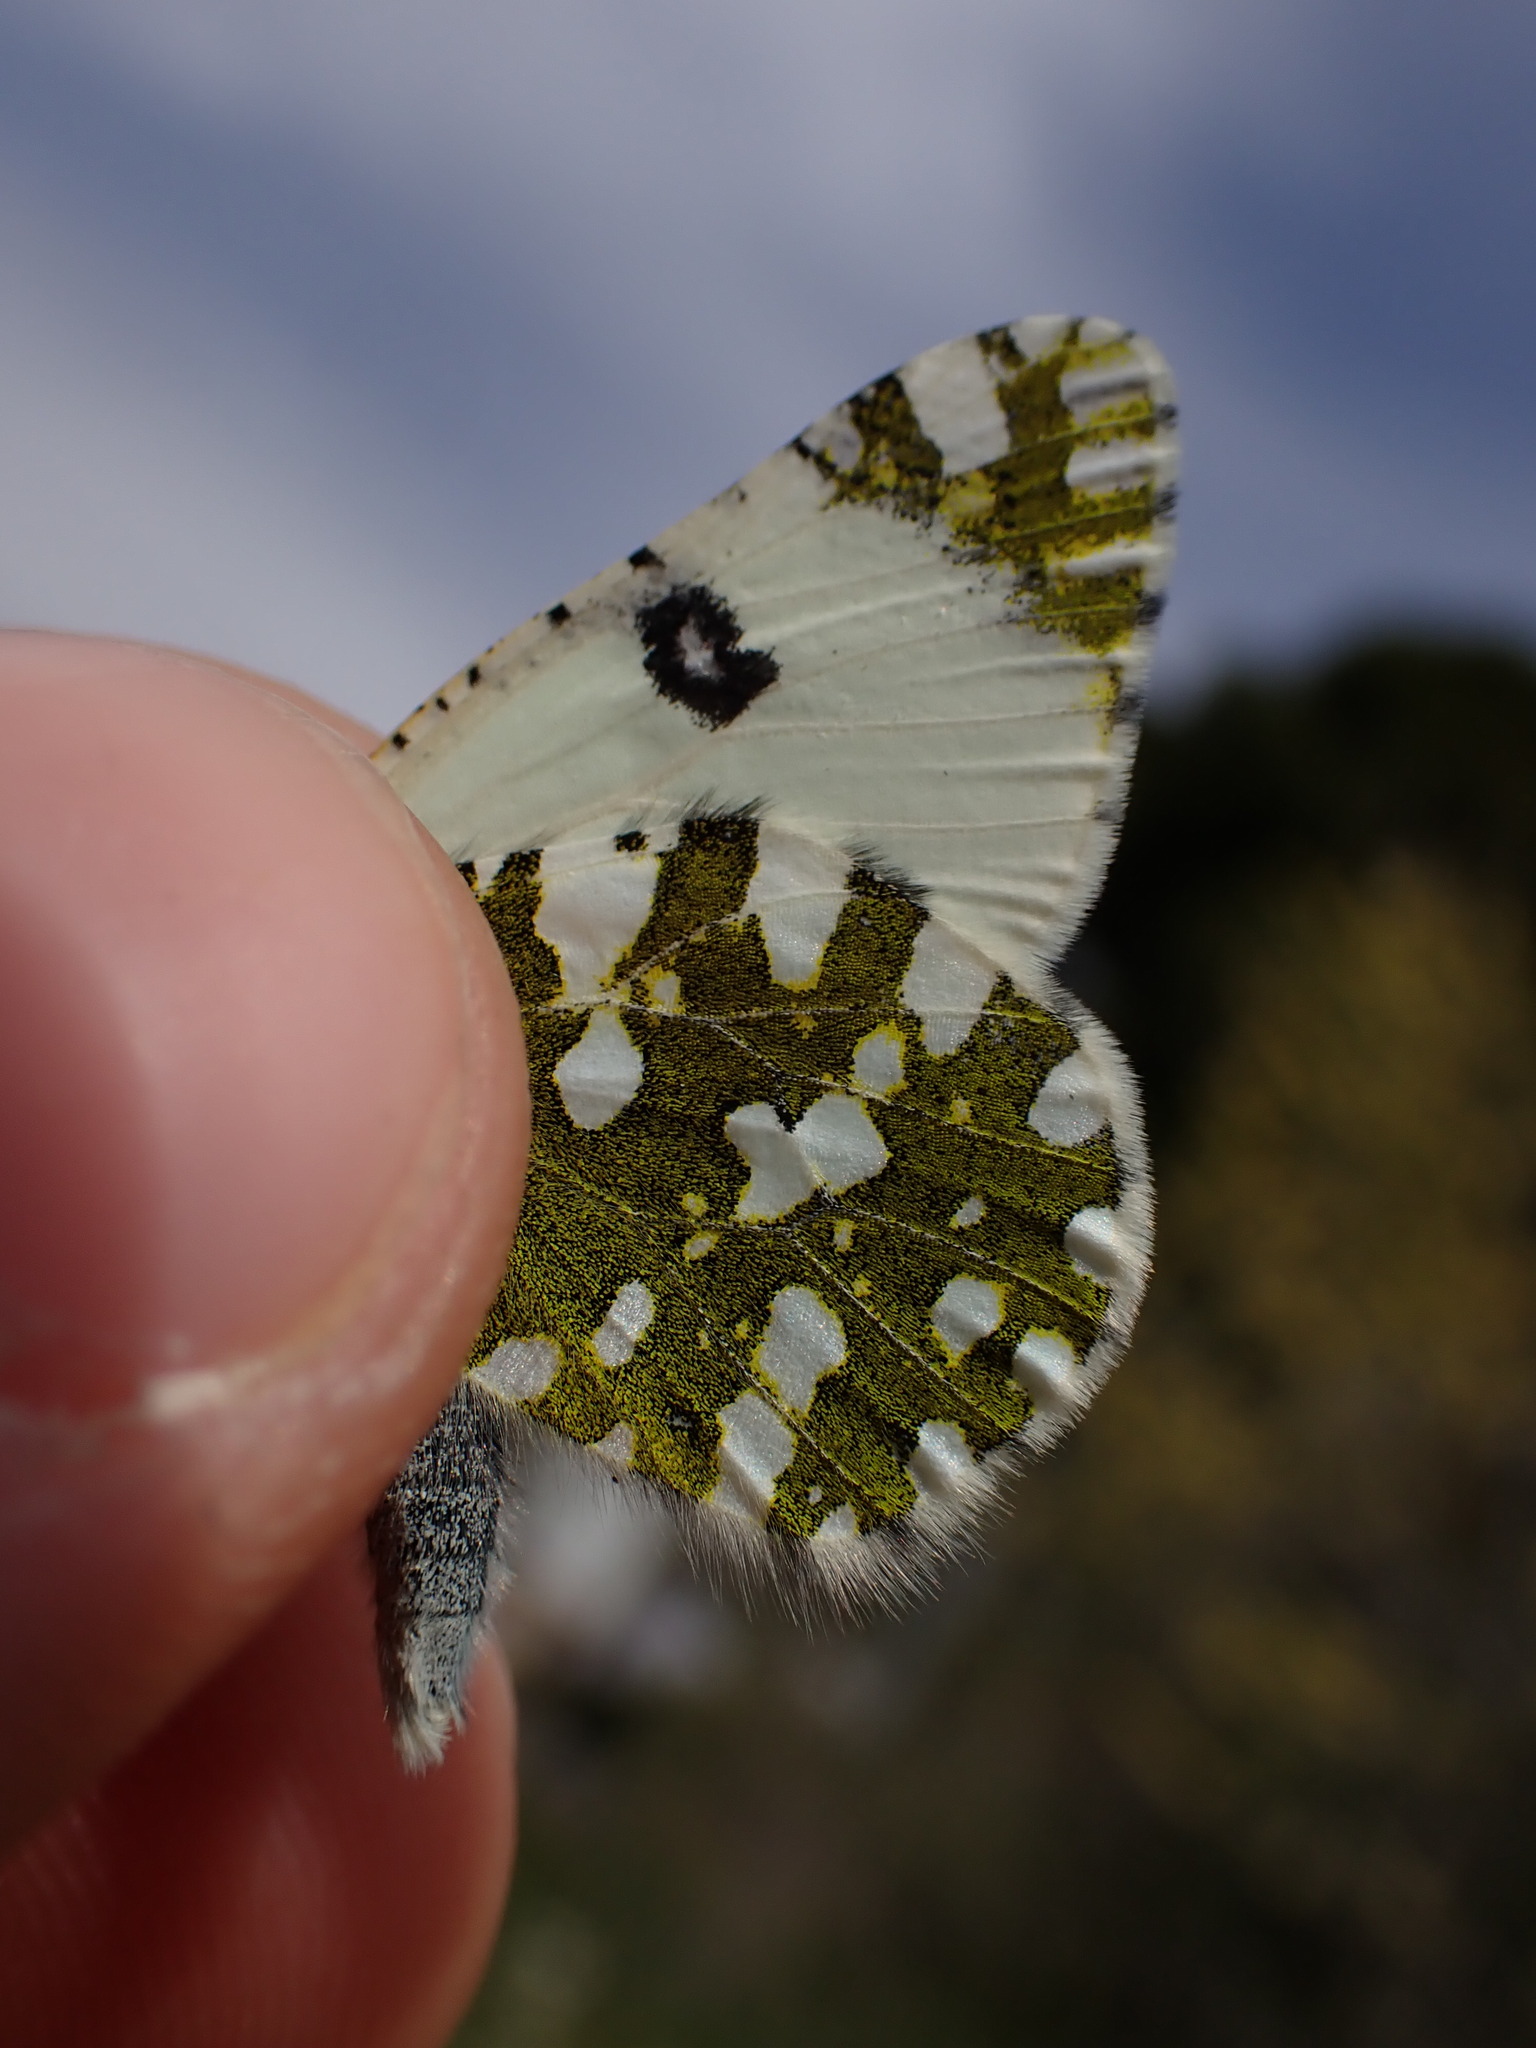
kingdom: Animalia
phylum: Arthropoda
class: Insecta
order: Lepidoptera
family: Pieridae
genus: Euchloe
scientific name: Euchloe crameri
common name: Western dappled white
